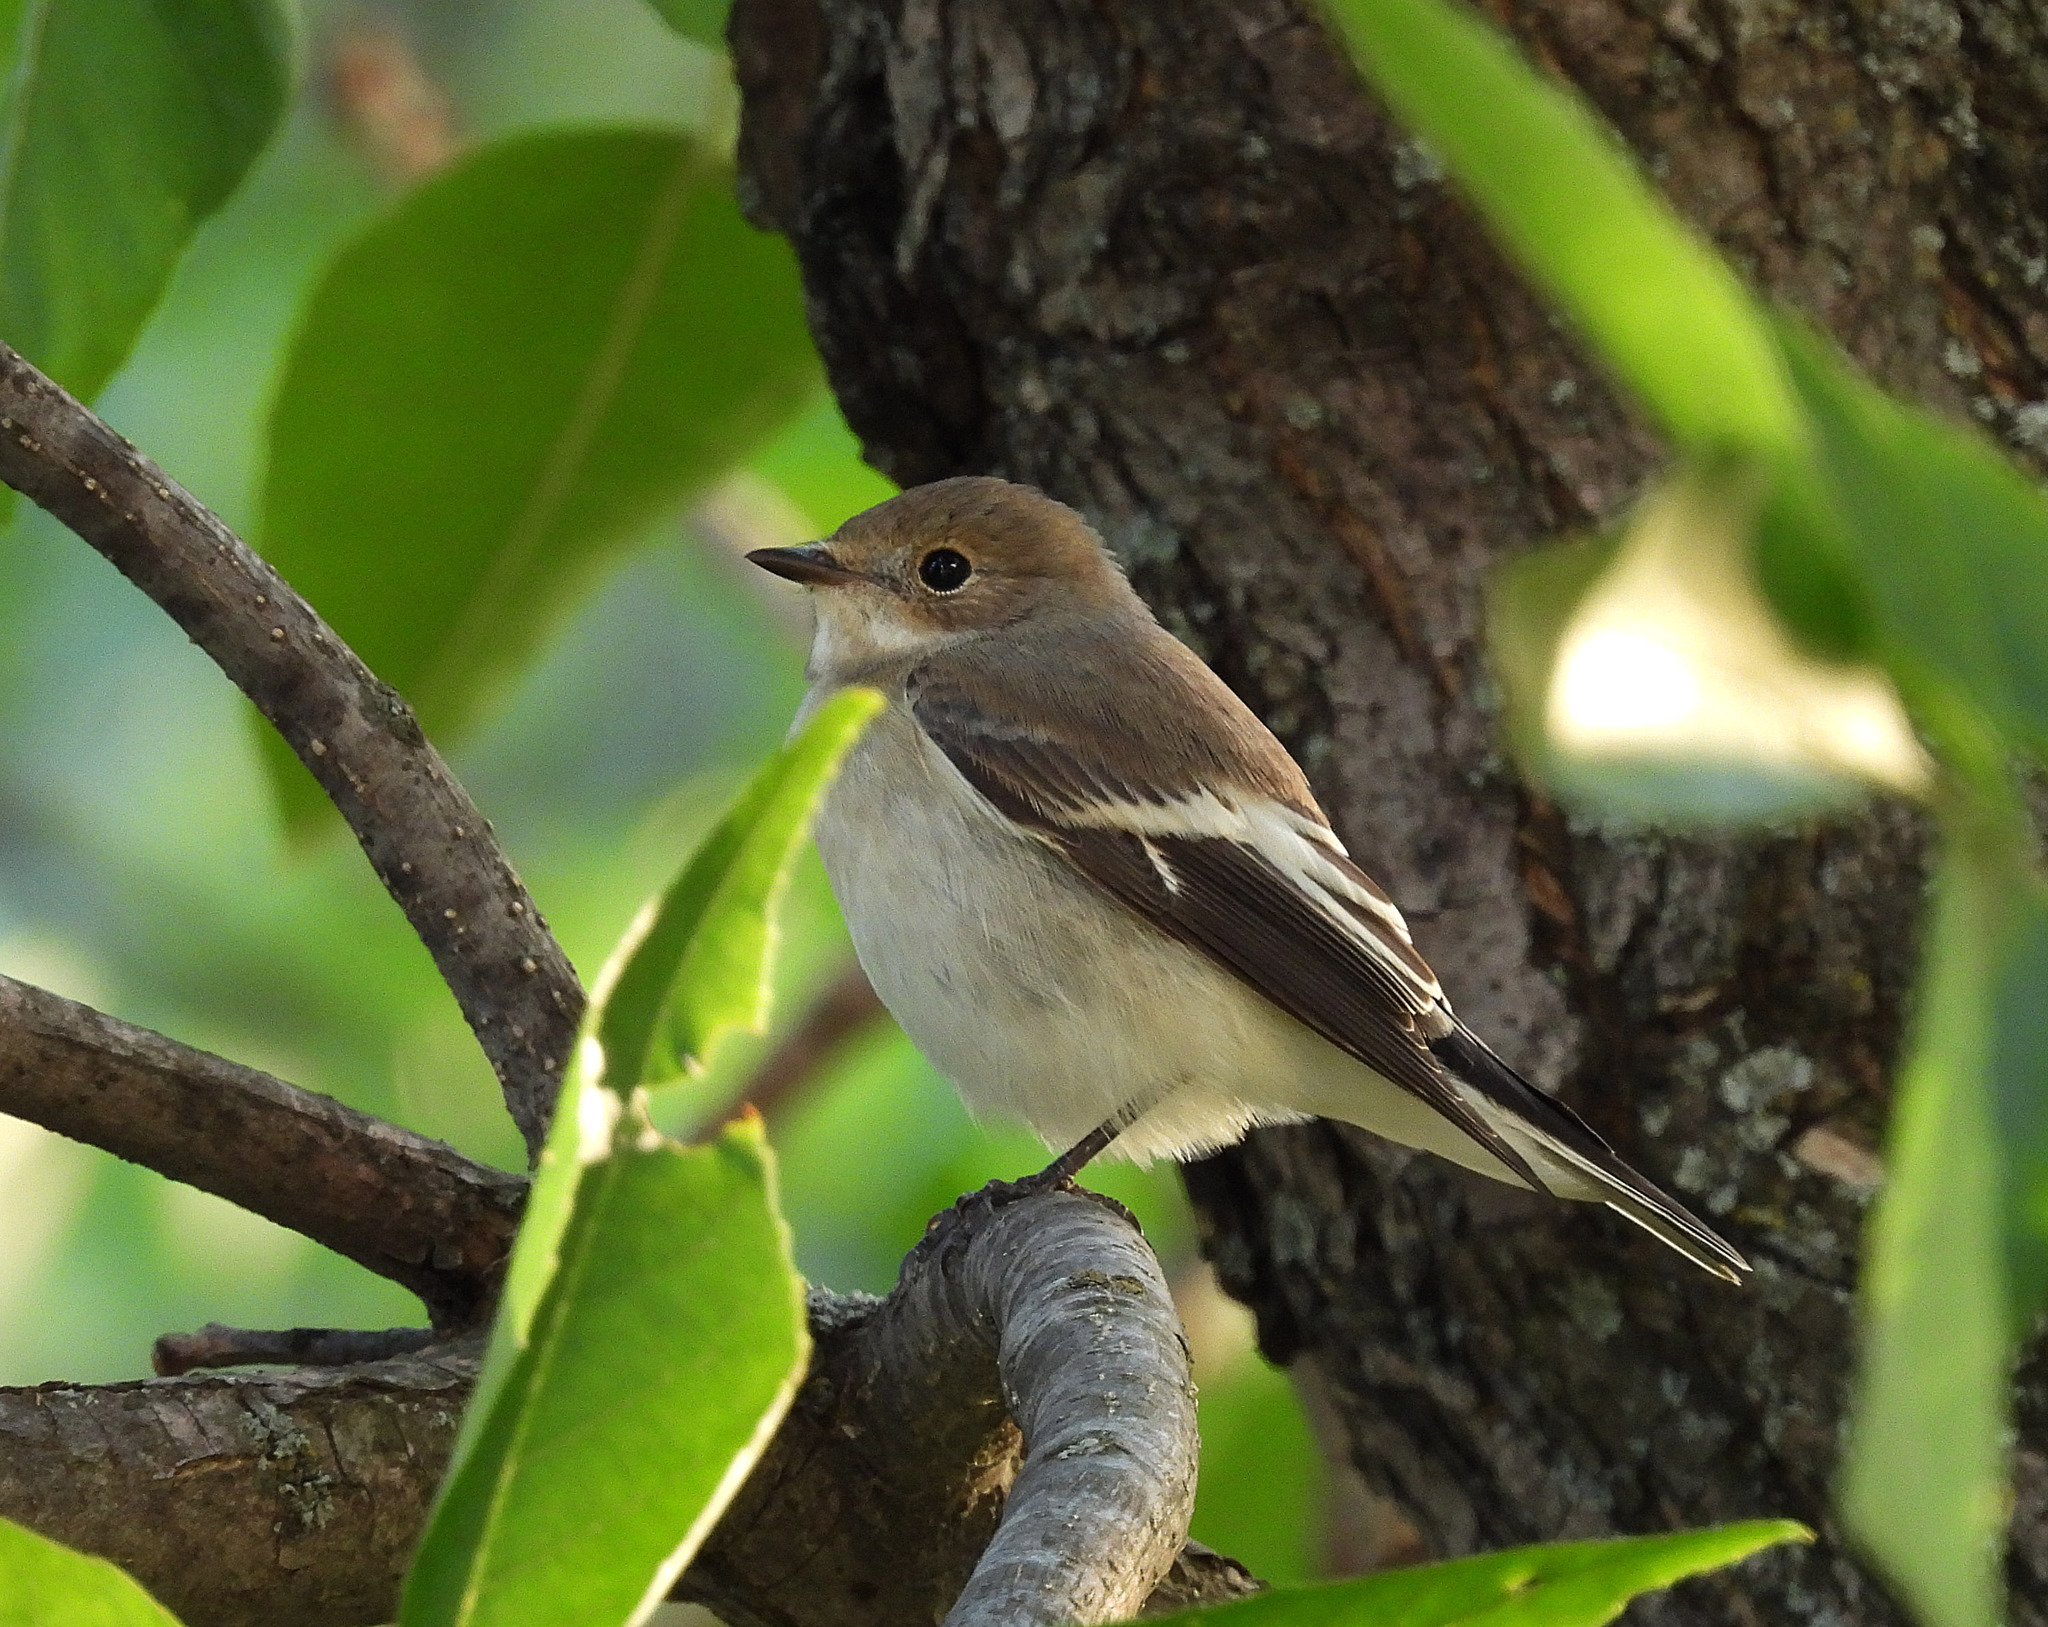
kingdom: Animalia
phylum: Chordata
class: Aves
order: Passeriformes
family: Muscicapidae
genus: Ficedula
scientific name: Ficedula hypoleuca
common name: European pied flycatcher
